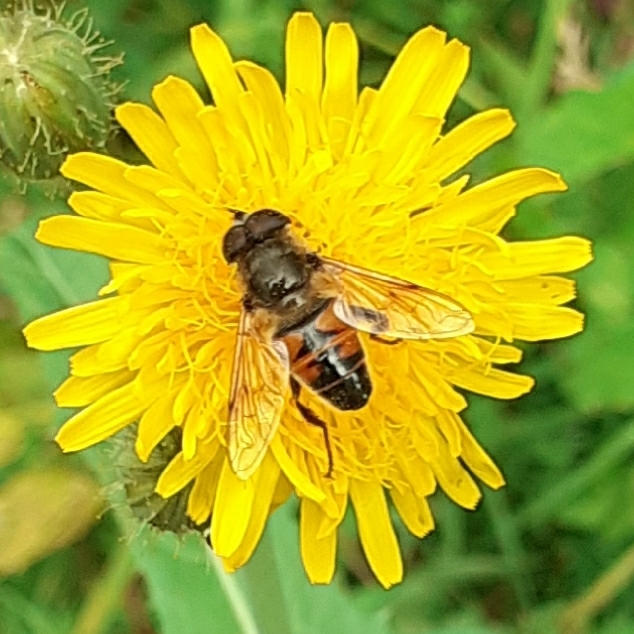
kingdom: Animalia
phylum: Arthropoda
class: Insecta
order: Diptera
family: Syrphidae
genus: Eristalis
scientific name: Eristalis tenax
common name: Drone fly
